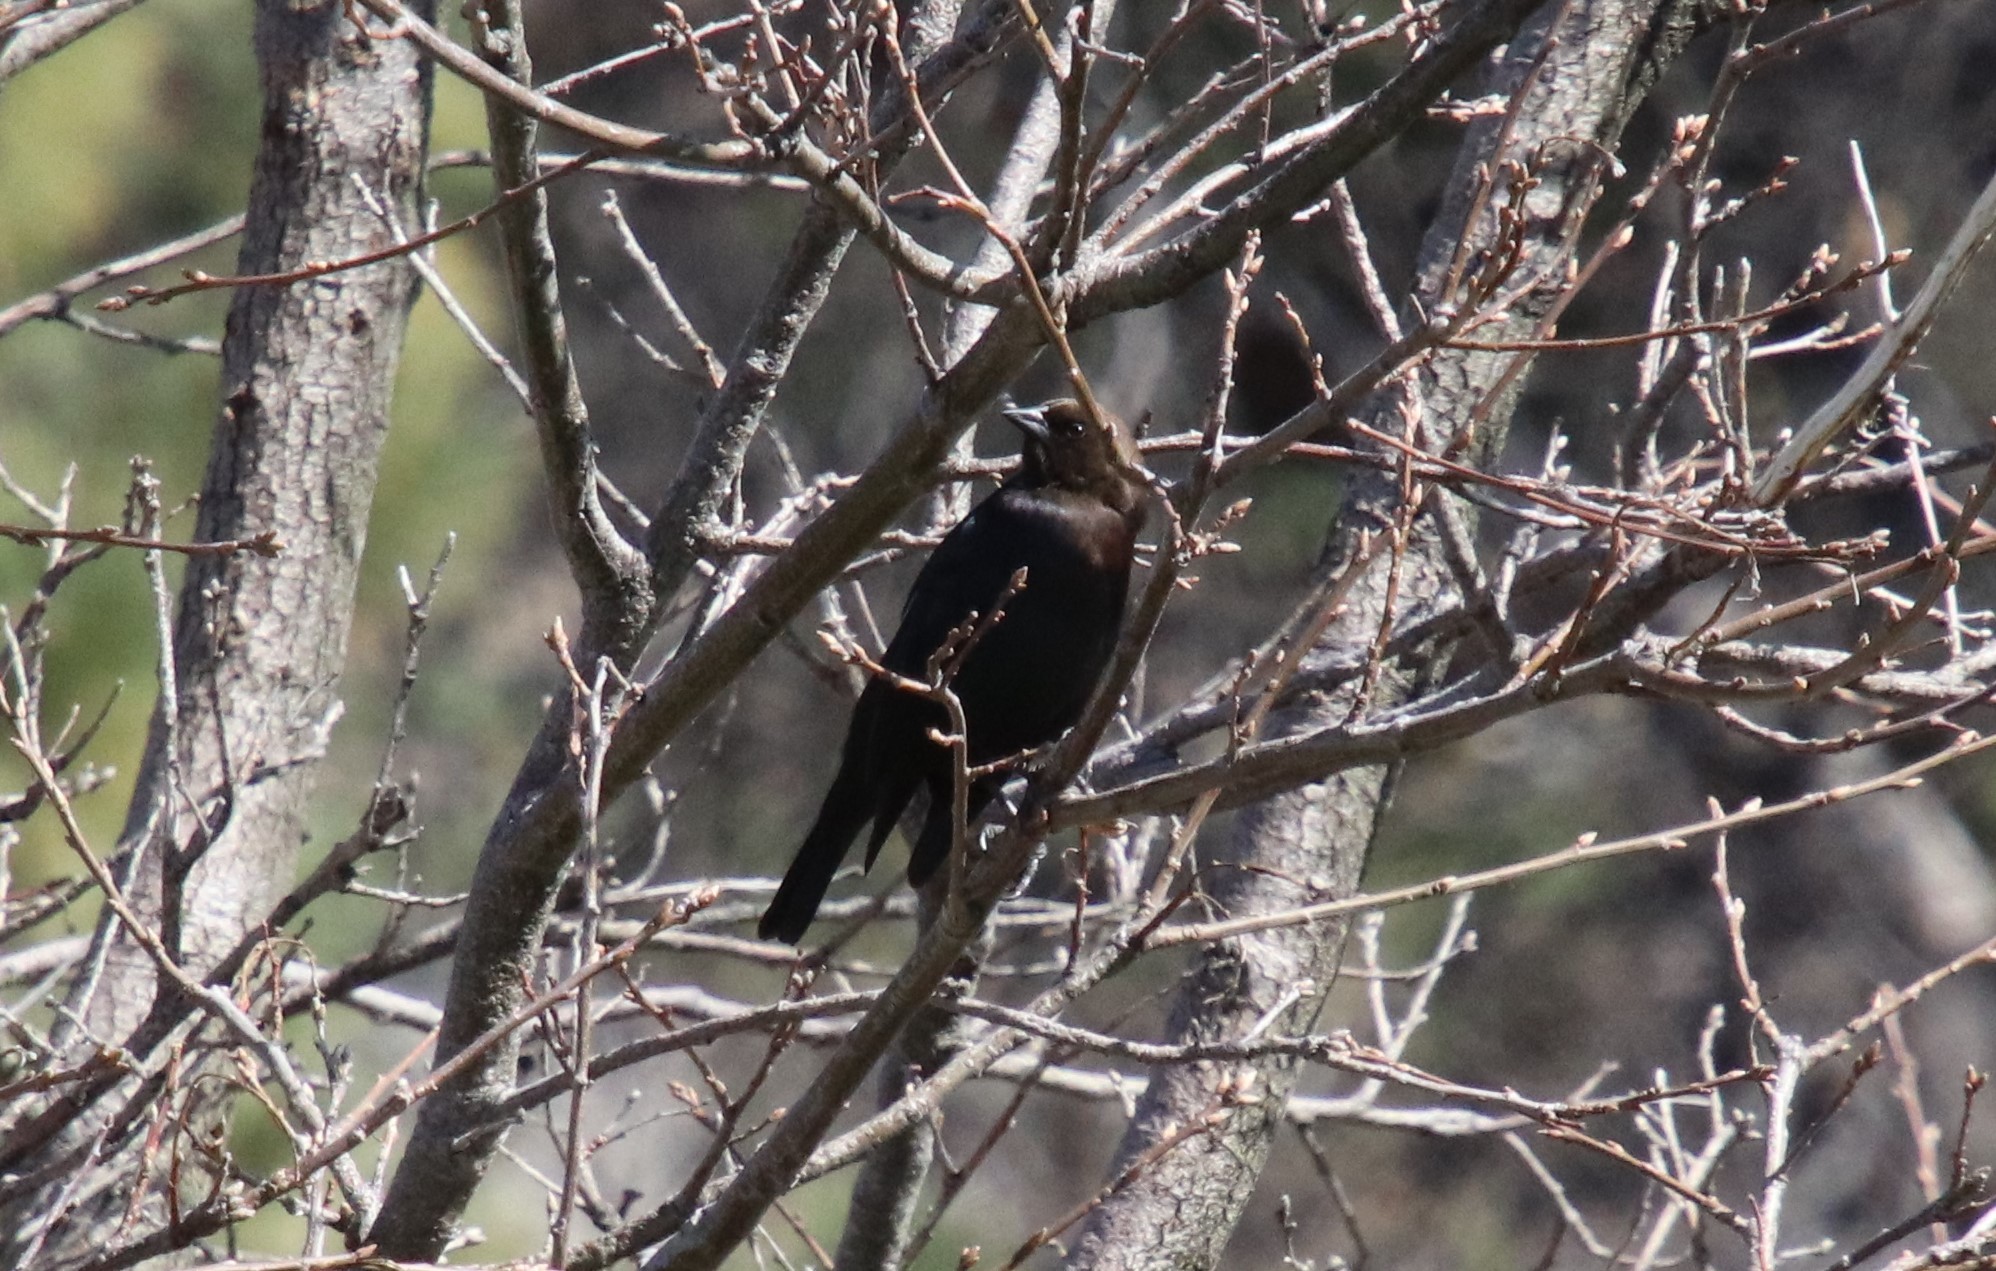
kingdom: Animalia
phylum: Chordata
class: Aves
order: Passeriformes
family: Icteridae
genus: Molothrus
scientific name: Molothrus ater
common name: Brown-headed cowbird
